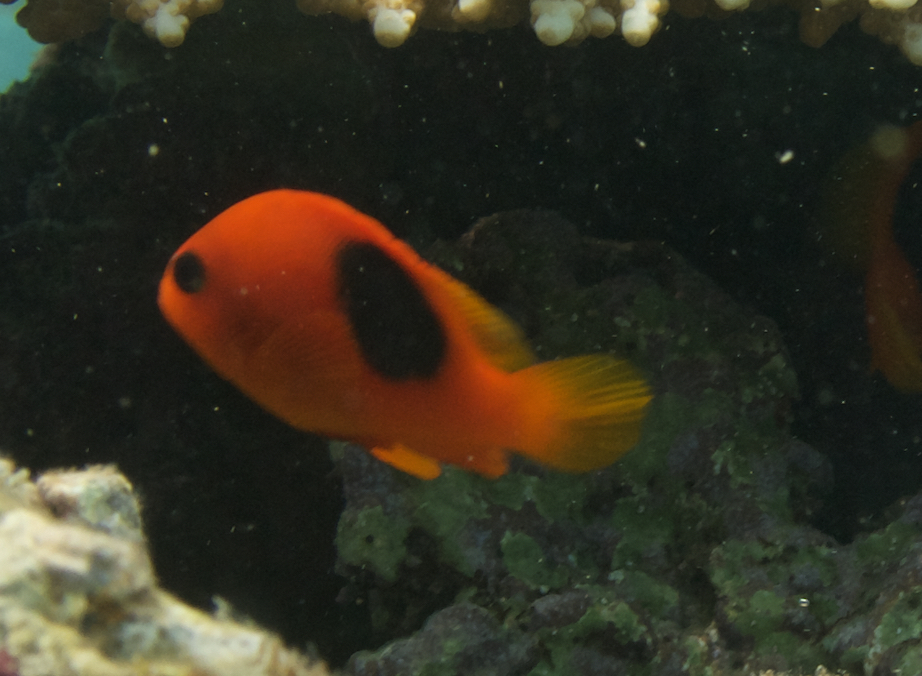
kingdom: Animalia
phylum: Chordata
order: Perciformes
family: Pomacentridae
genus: Amphiprion
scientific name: Amphiprion ephippium
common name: Red saddleback anemonefish
